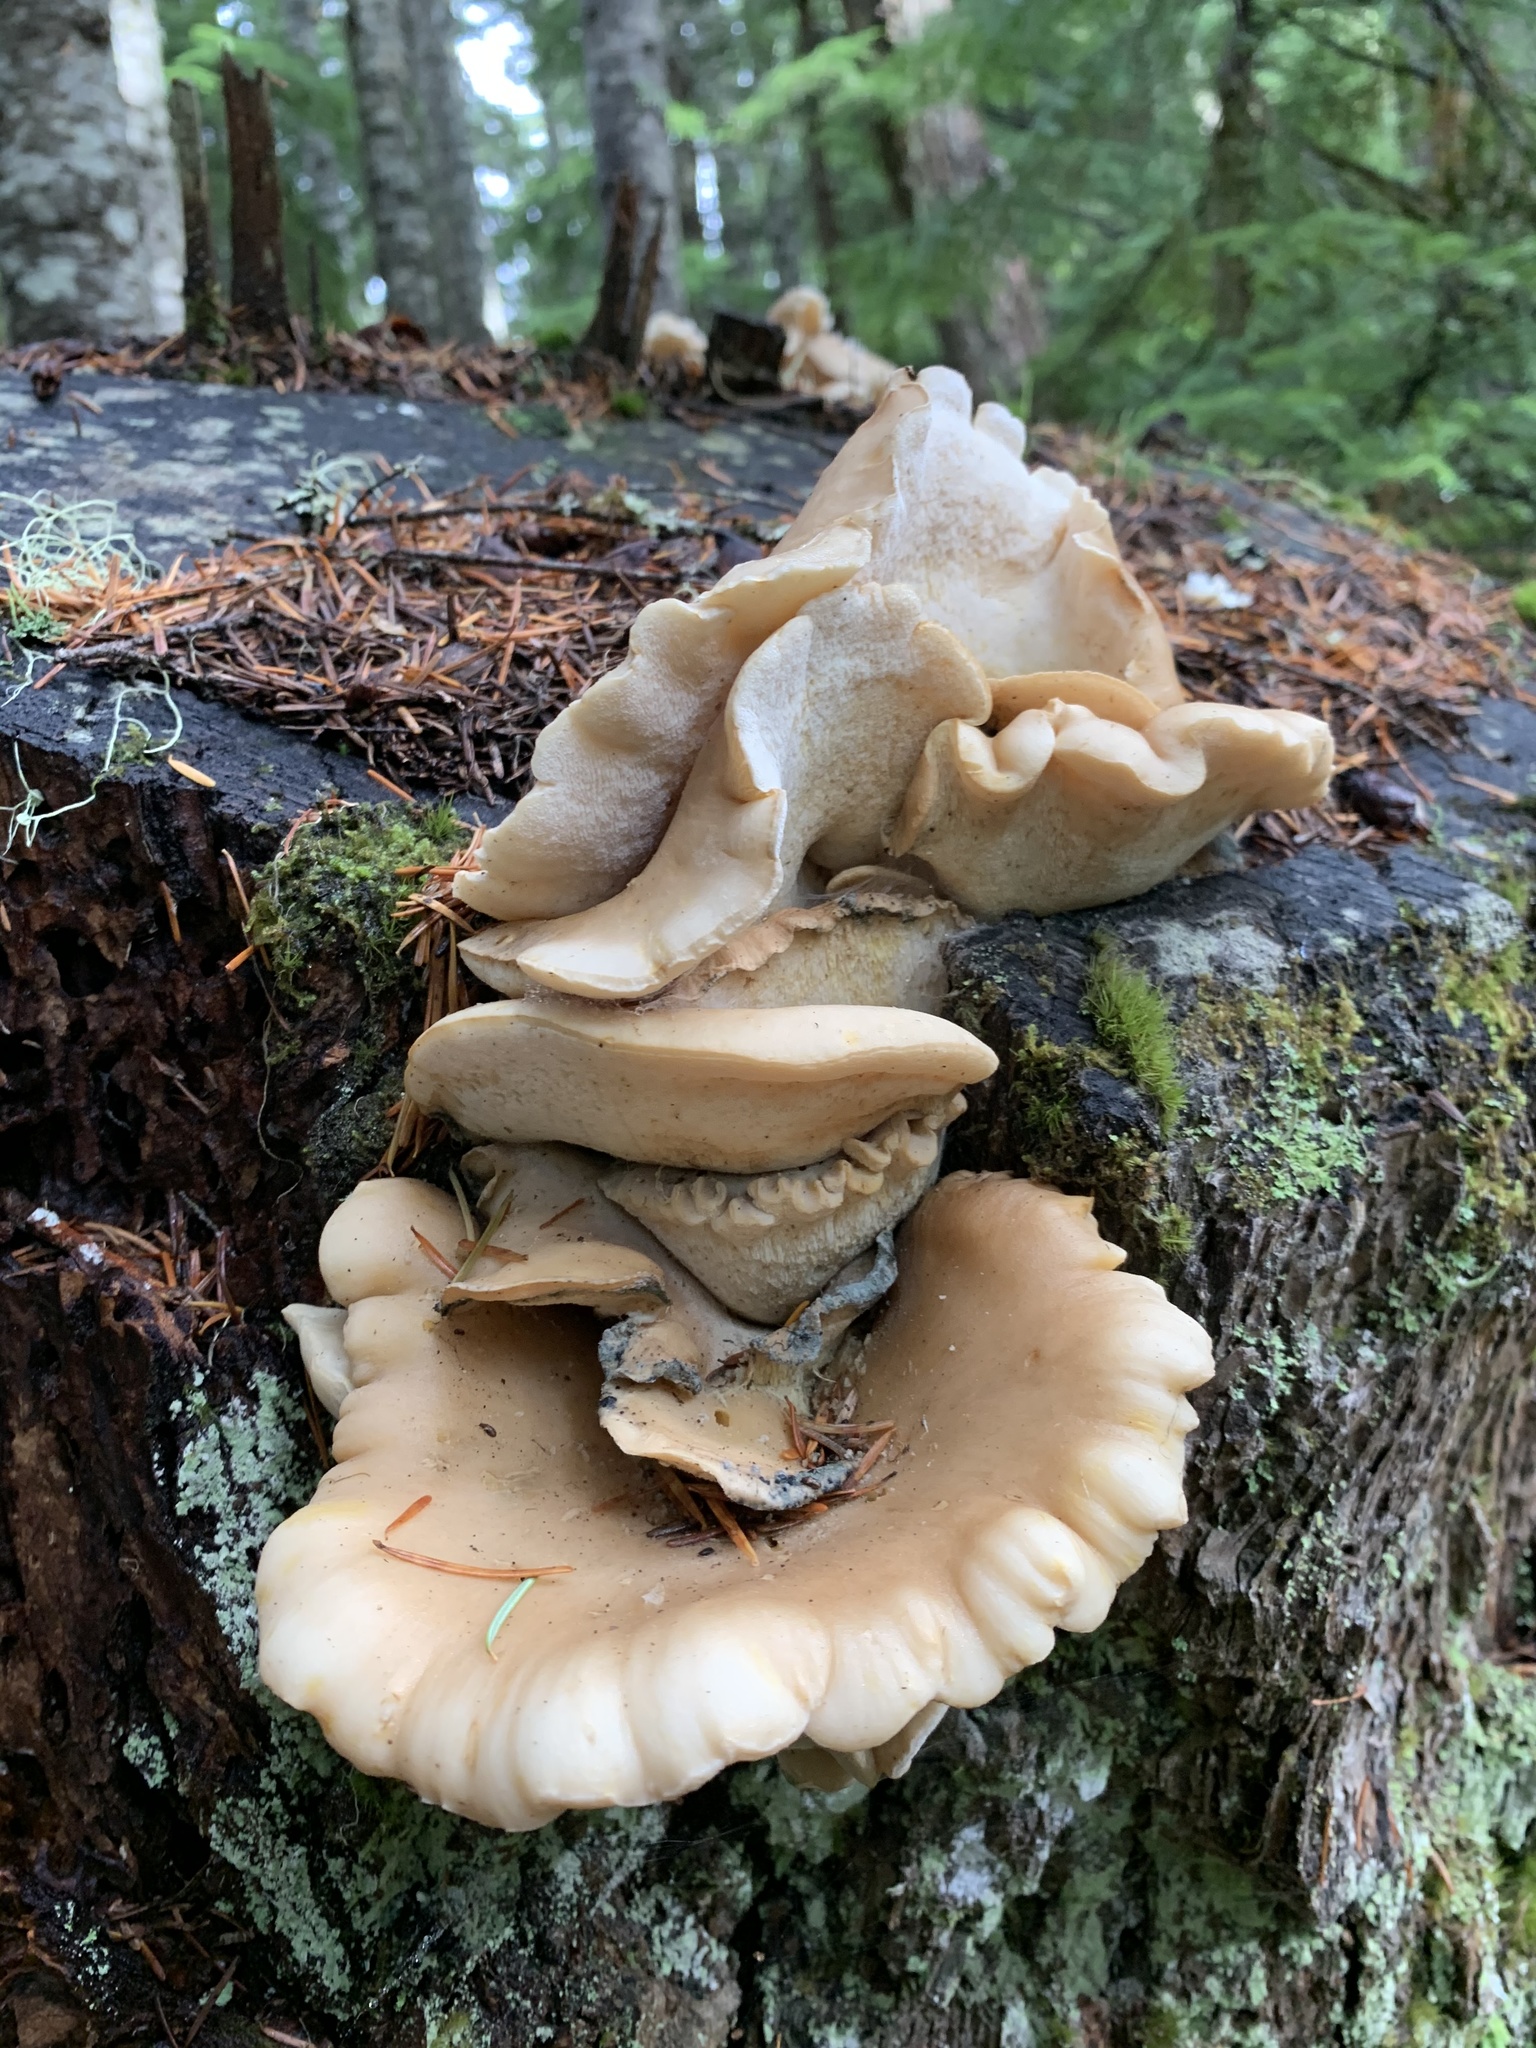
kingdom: Fungi
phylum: Basidiomycota
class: Agaricomycetes
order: Polyporales
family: Dacryobolaceae
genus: Osteina
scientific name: Osteina obducta
